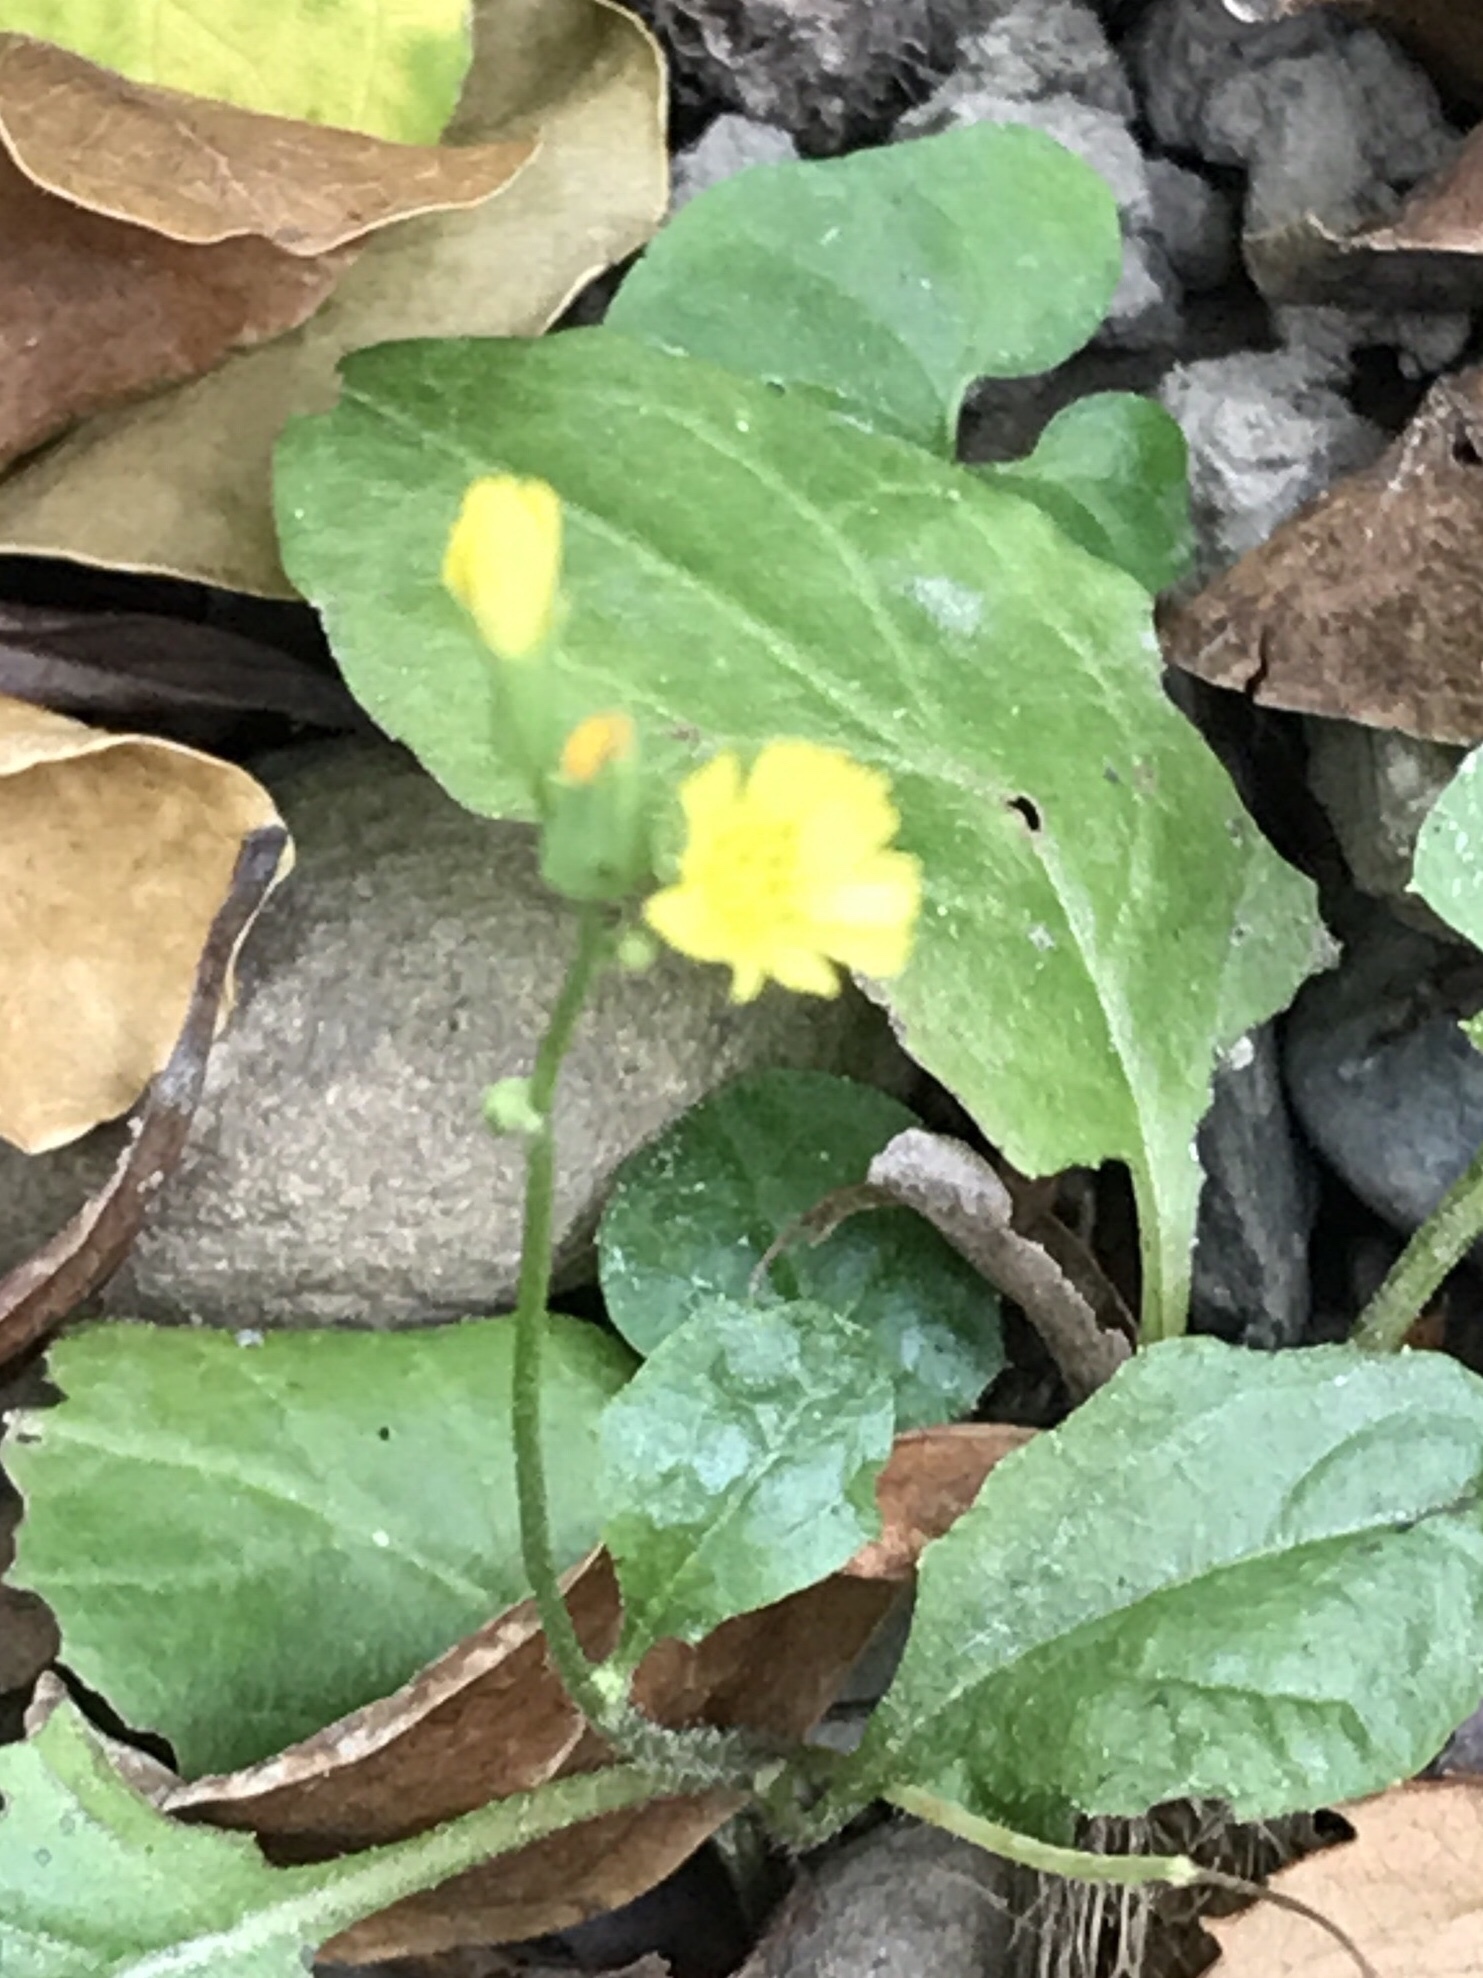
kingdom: Plantae
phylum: Tracheophyta
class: Magnoliopsida
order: Asterales
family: Asteraceae
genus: Youngia
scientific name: Youngia japonica
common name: Oriental false hawksbeard
